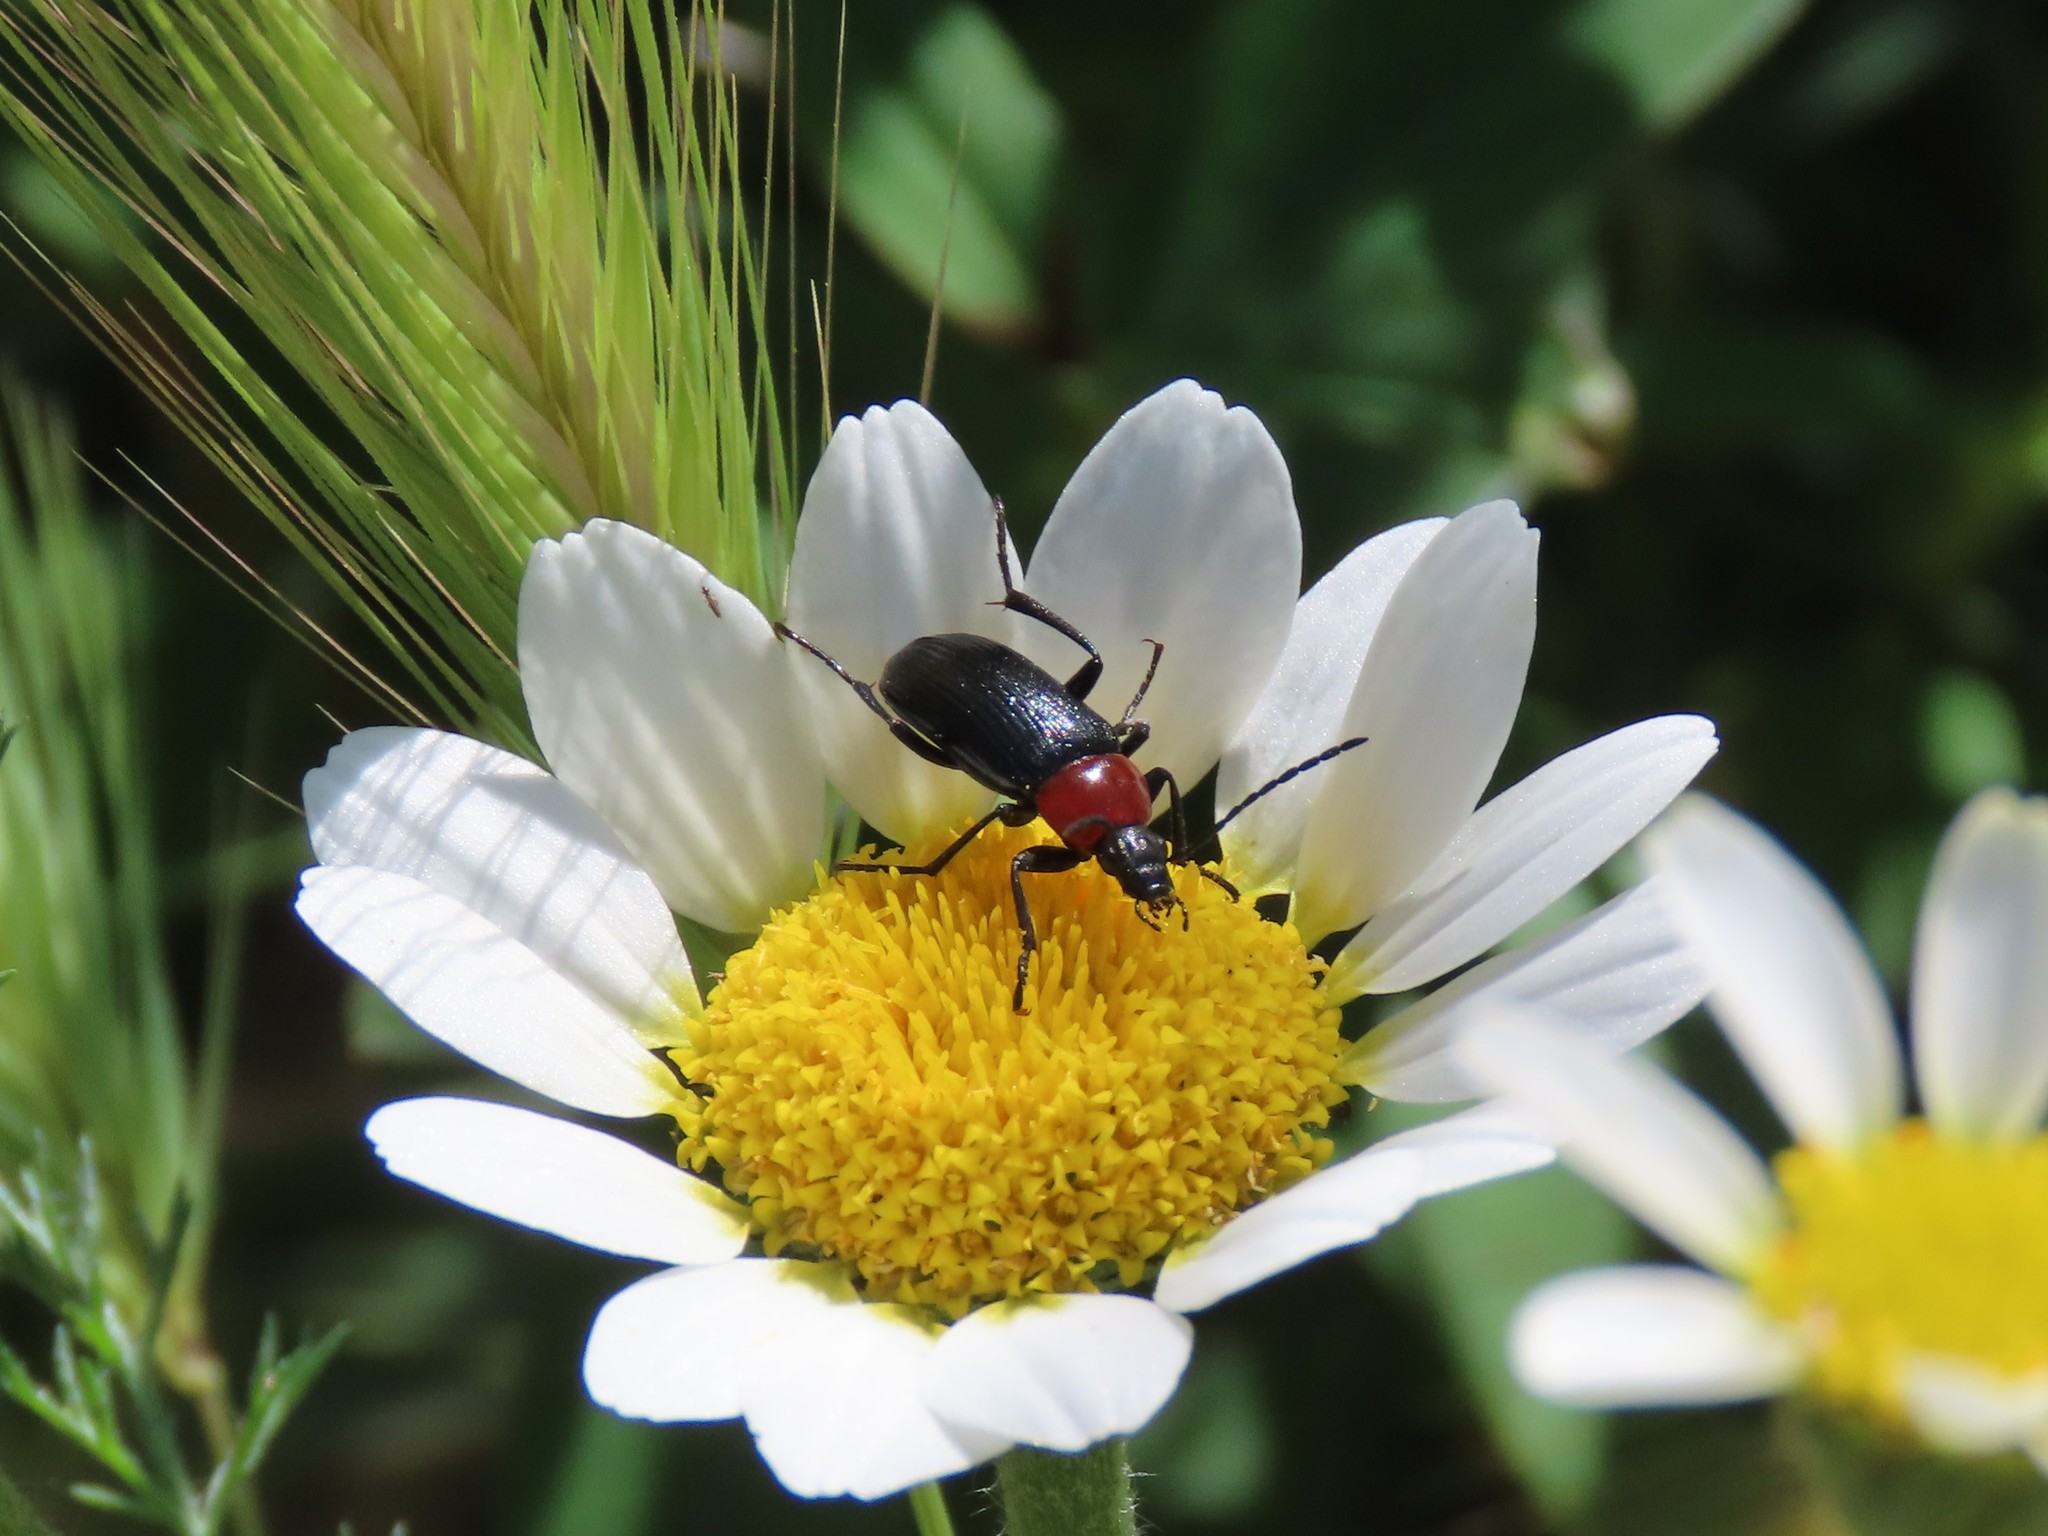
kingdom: Animalia
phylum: Arthropoda
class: Insecta
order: Coleoptera
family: Tenebrionidae
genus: Heliotaurus
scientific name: Heliotaurus ruficollis
